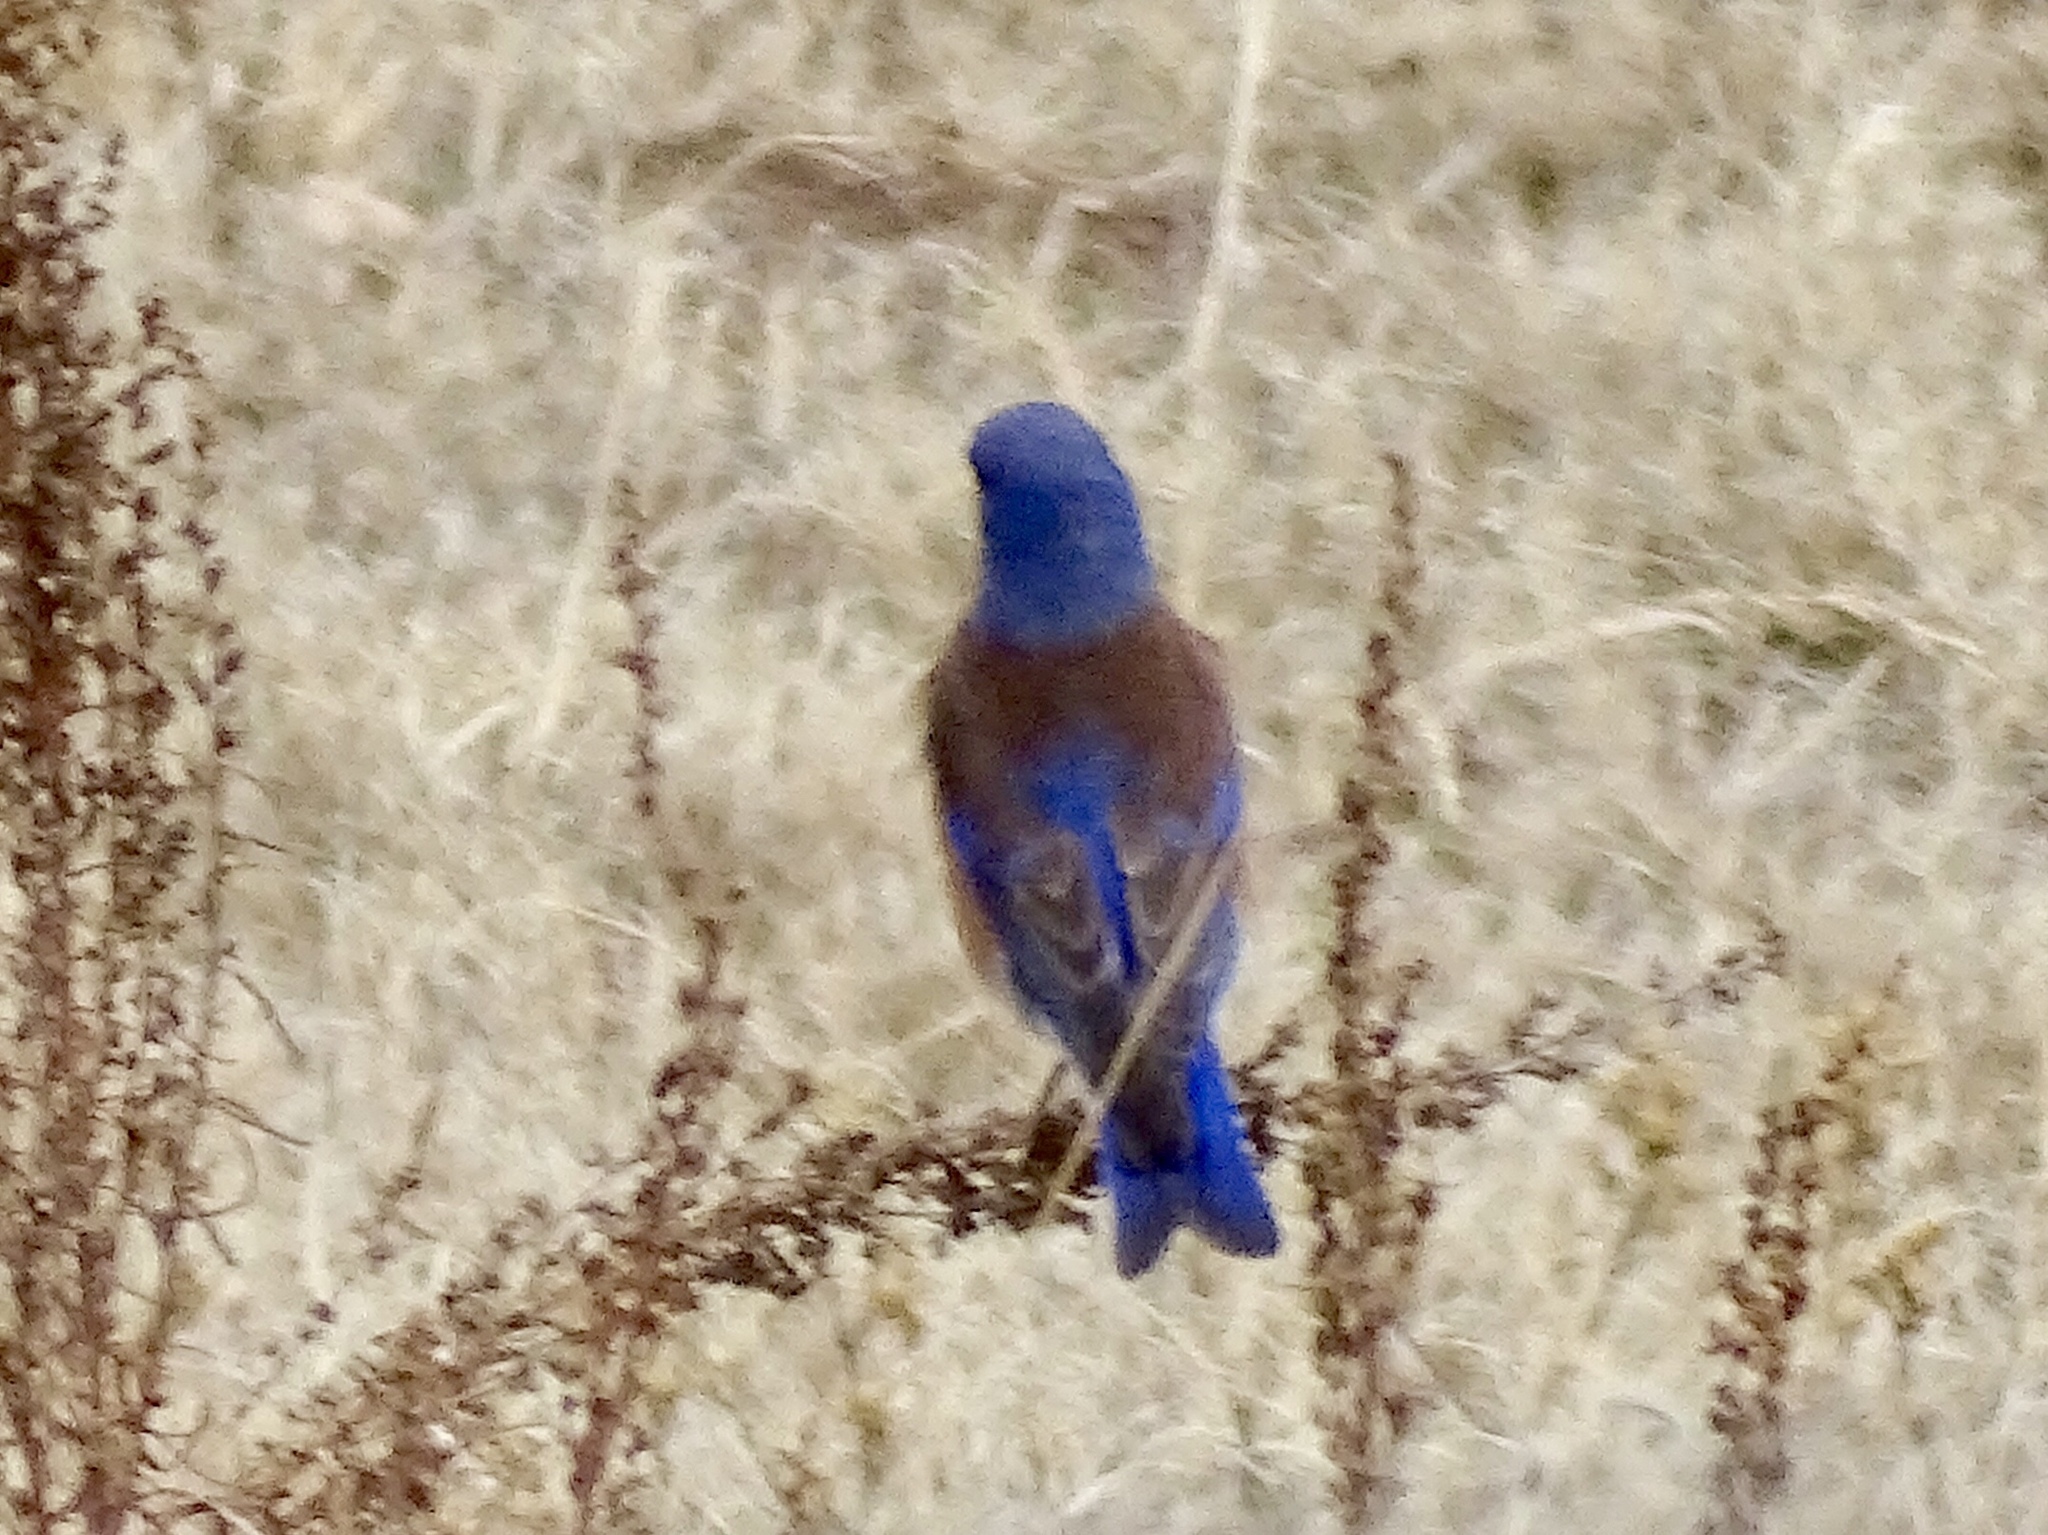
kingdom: Animalia
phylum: Chordata
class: Aves
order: Passeriformes
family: Turdidae
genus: Sialia
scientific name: Sialia mexicana
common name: Western bluebird
